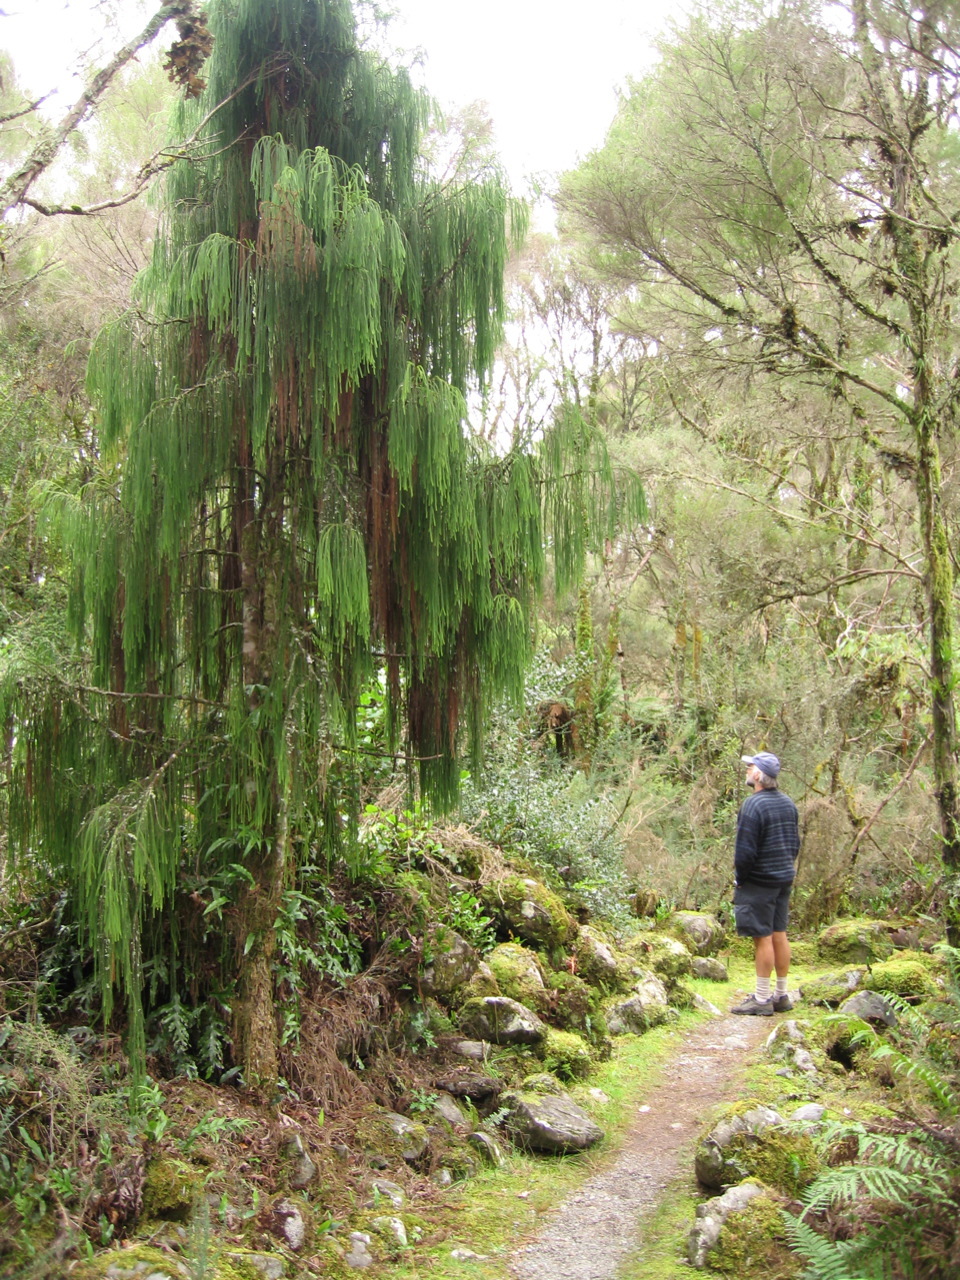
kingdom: Plantae
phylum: Tracheophyta
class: Pinopsida
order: Pinales
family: Podocarpaceae
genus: Dacrydium
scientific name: Dacrydium cupressinum
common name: Red pine
